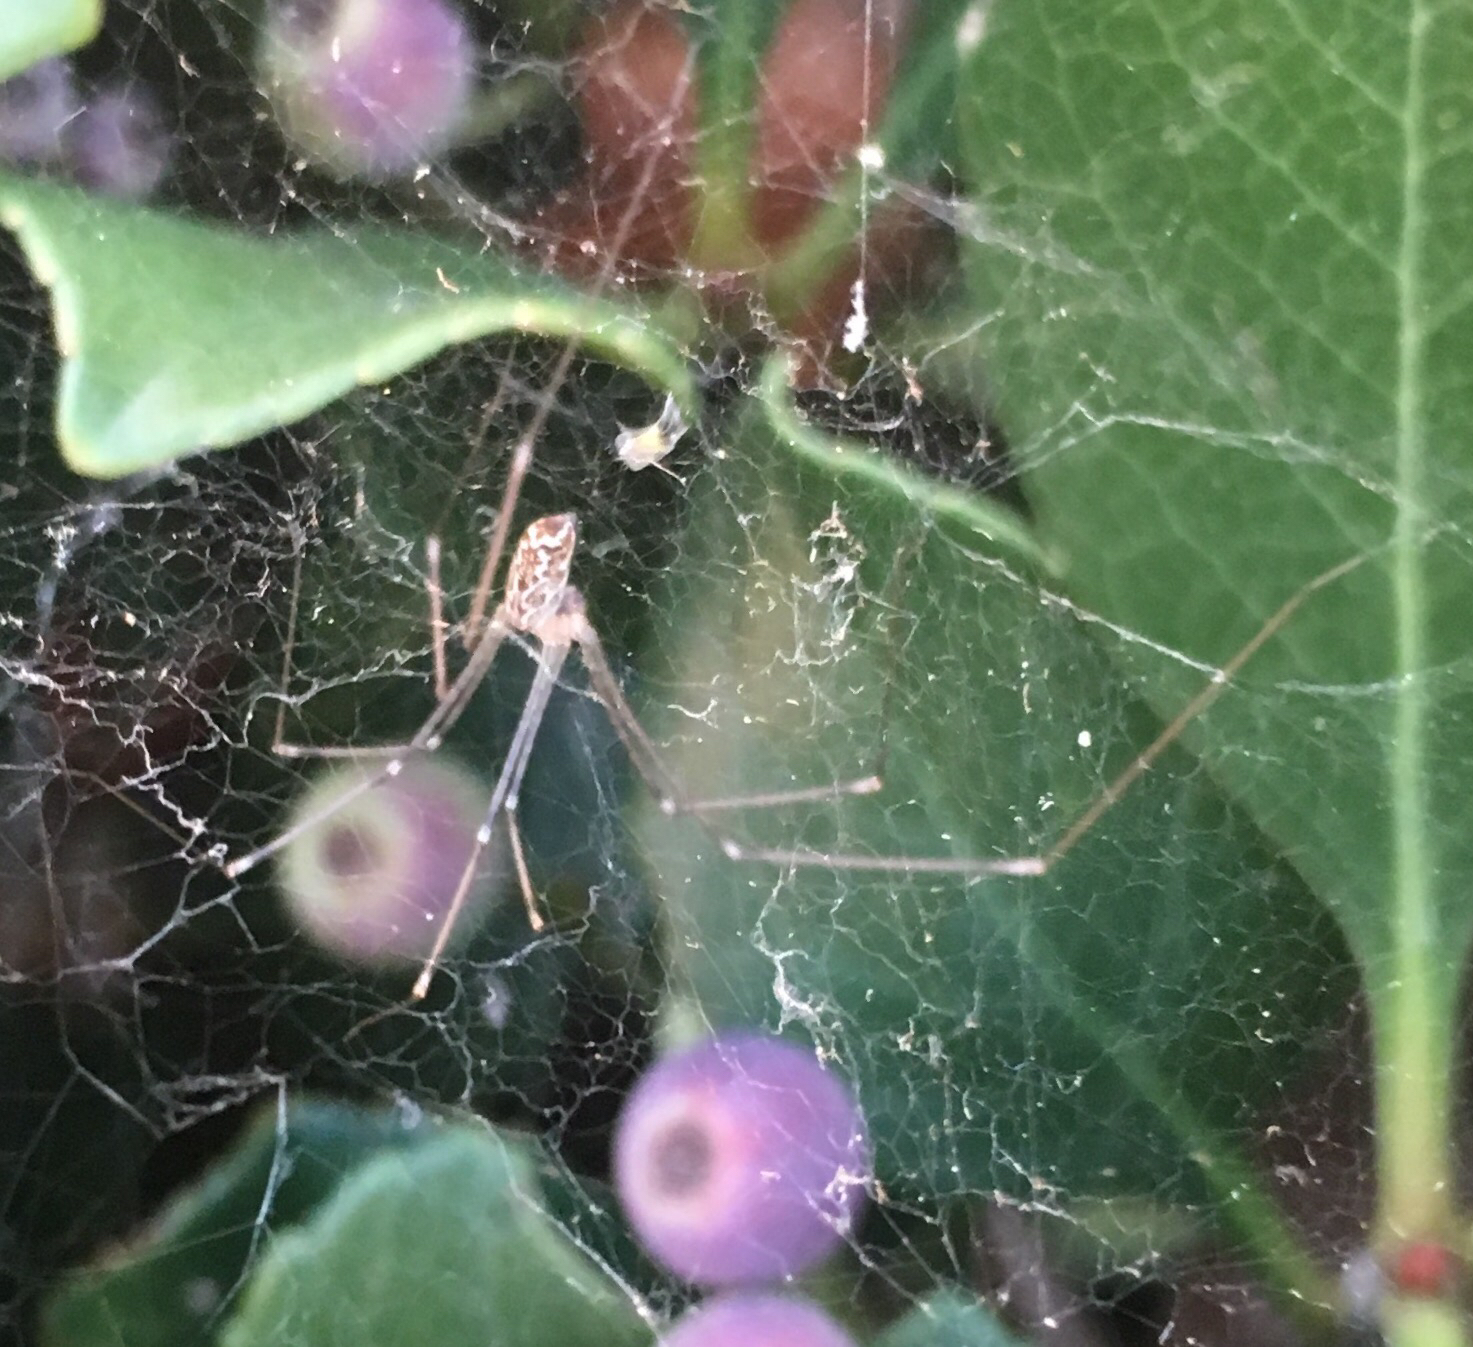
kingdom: Animalia
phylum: Arthropoda
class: Arachnida
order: Araneae
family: Pholcidae
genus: Holocnemus
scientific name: Holocnemus pluchei
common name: Marbled cellar spider
